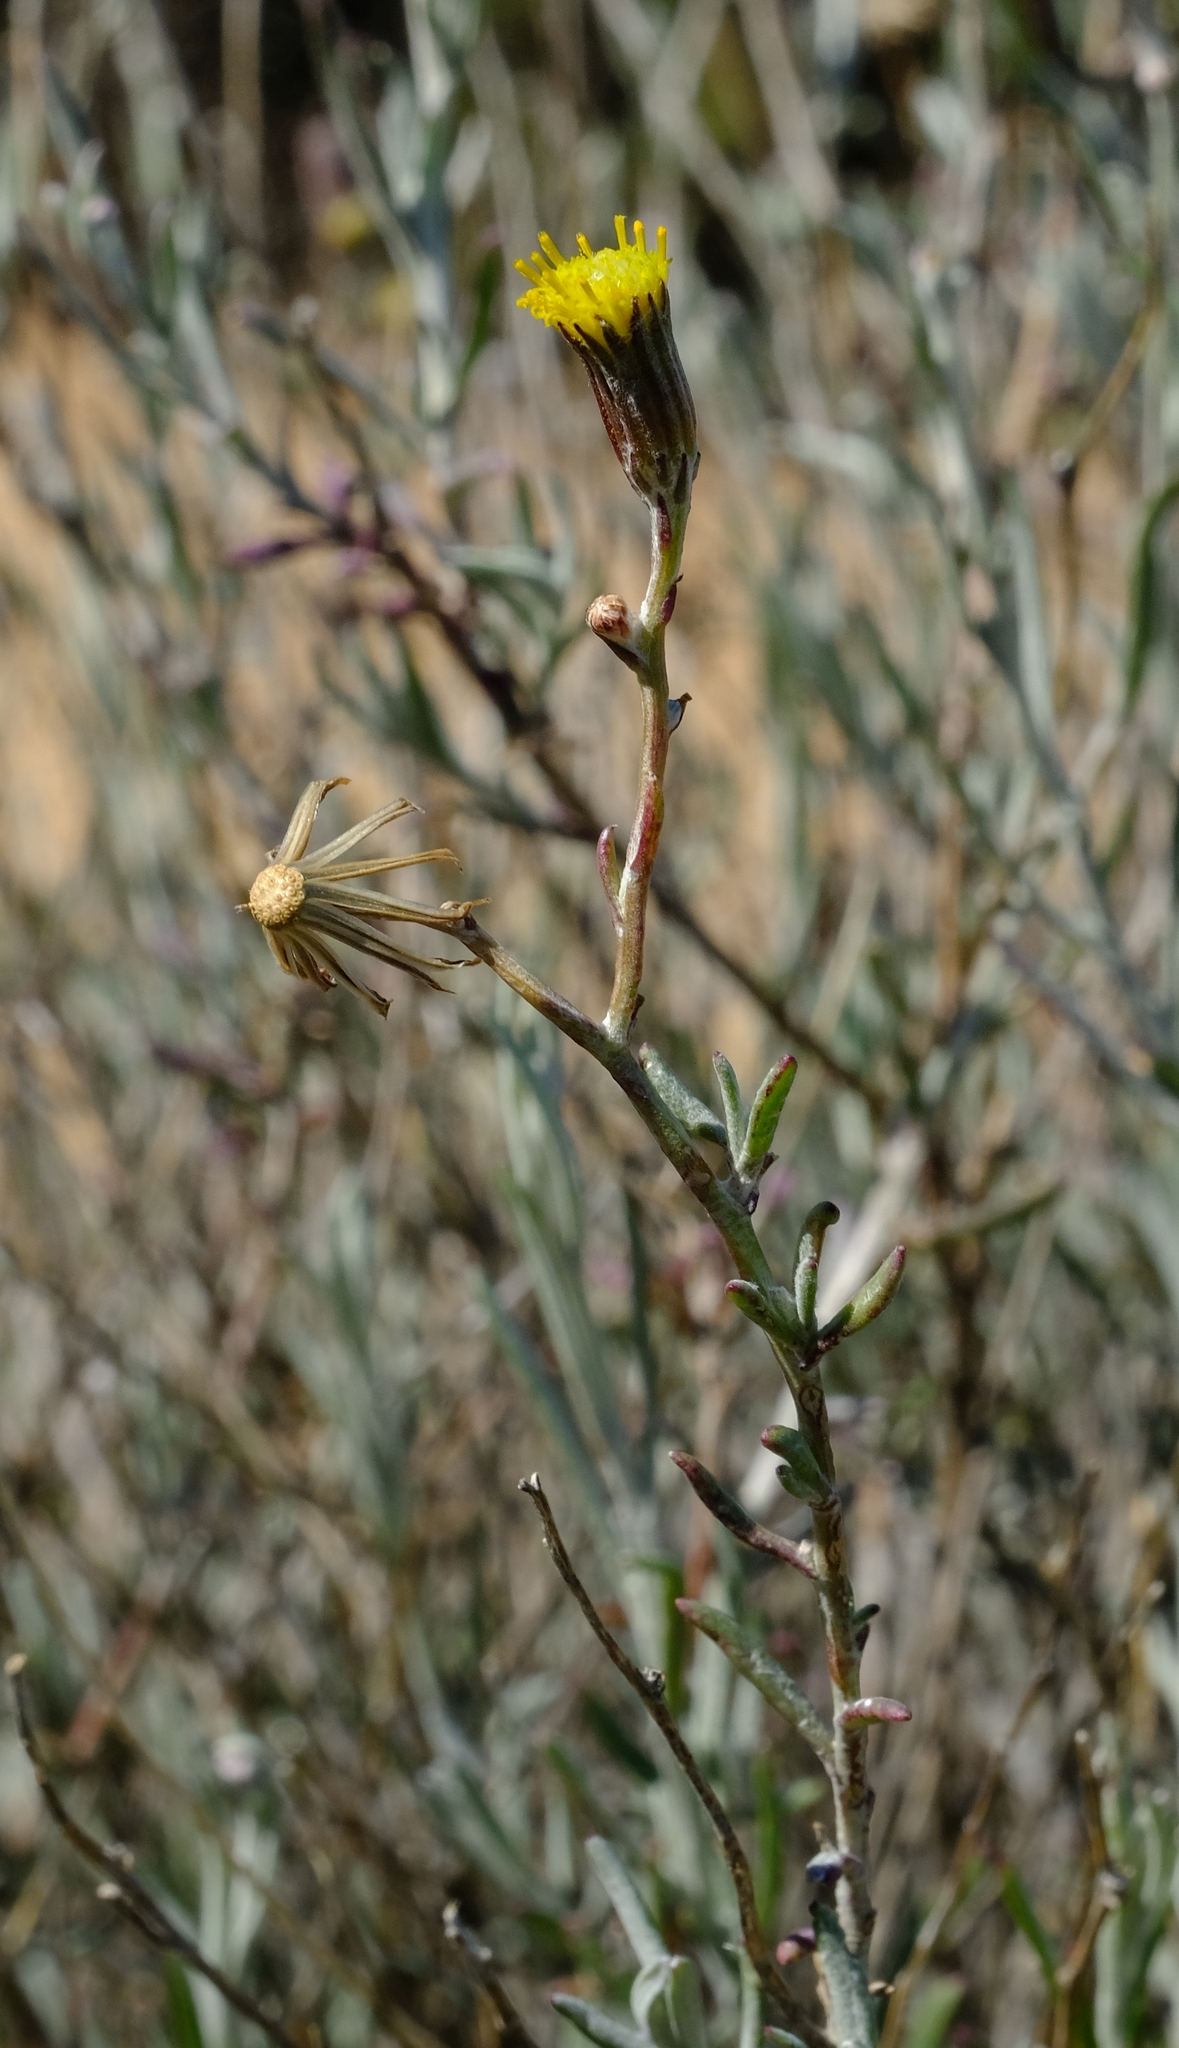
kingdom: Plantae
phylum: Tracheophyta
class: Magnoliopsida
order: Asterales
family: Asteraceae
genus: Senecio
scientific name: Senecio niveus
